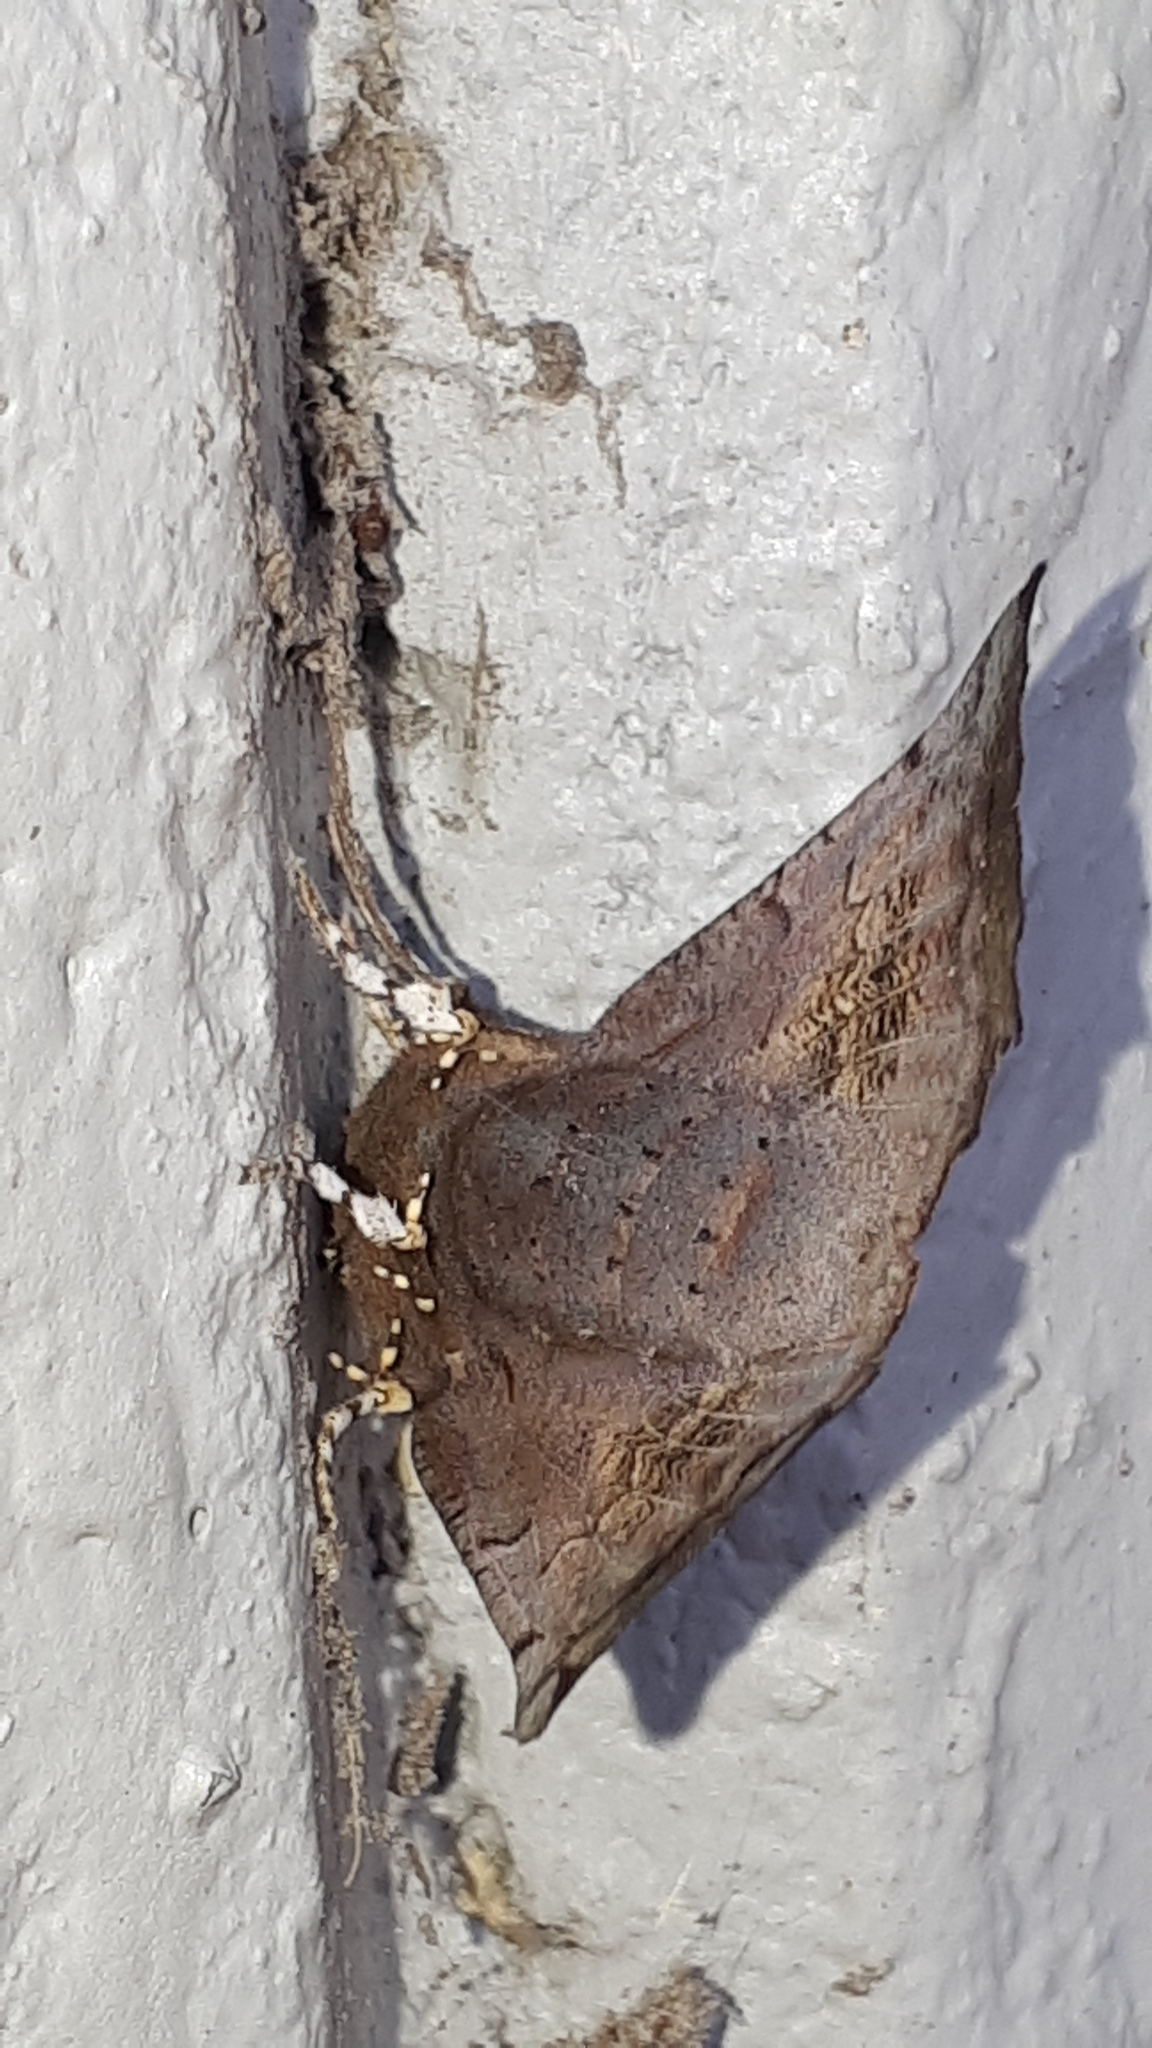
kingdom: Animalia
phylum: Arthropoda
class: Insecta
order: Lepidoptera
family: Erebidae
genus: Scoliopteryx
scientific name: Scoliopteryx libatrix
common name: Herald
